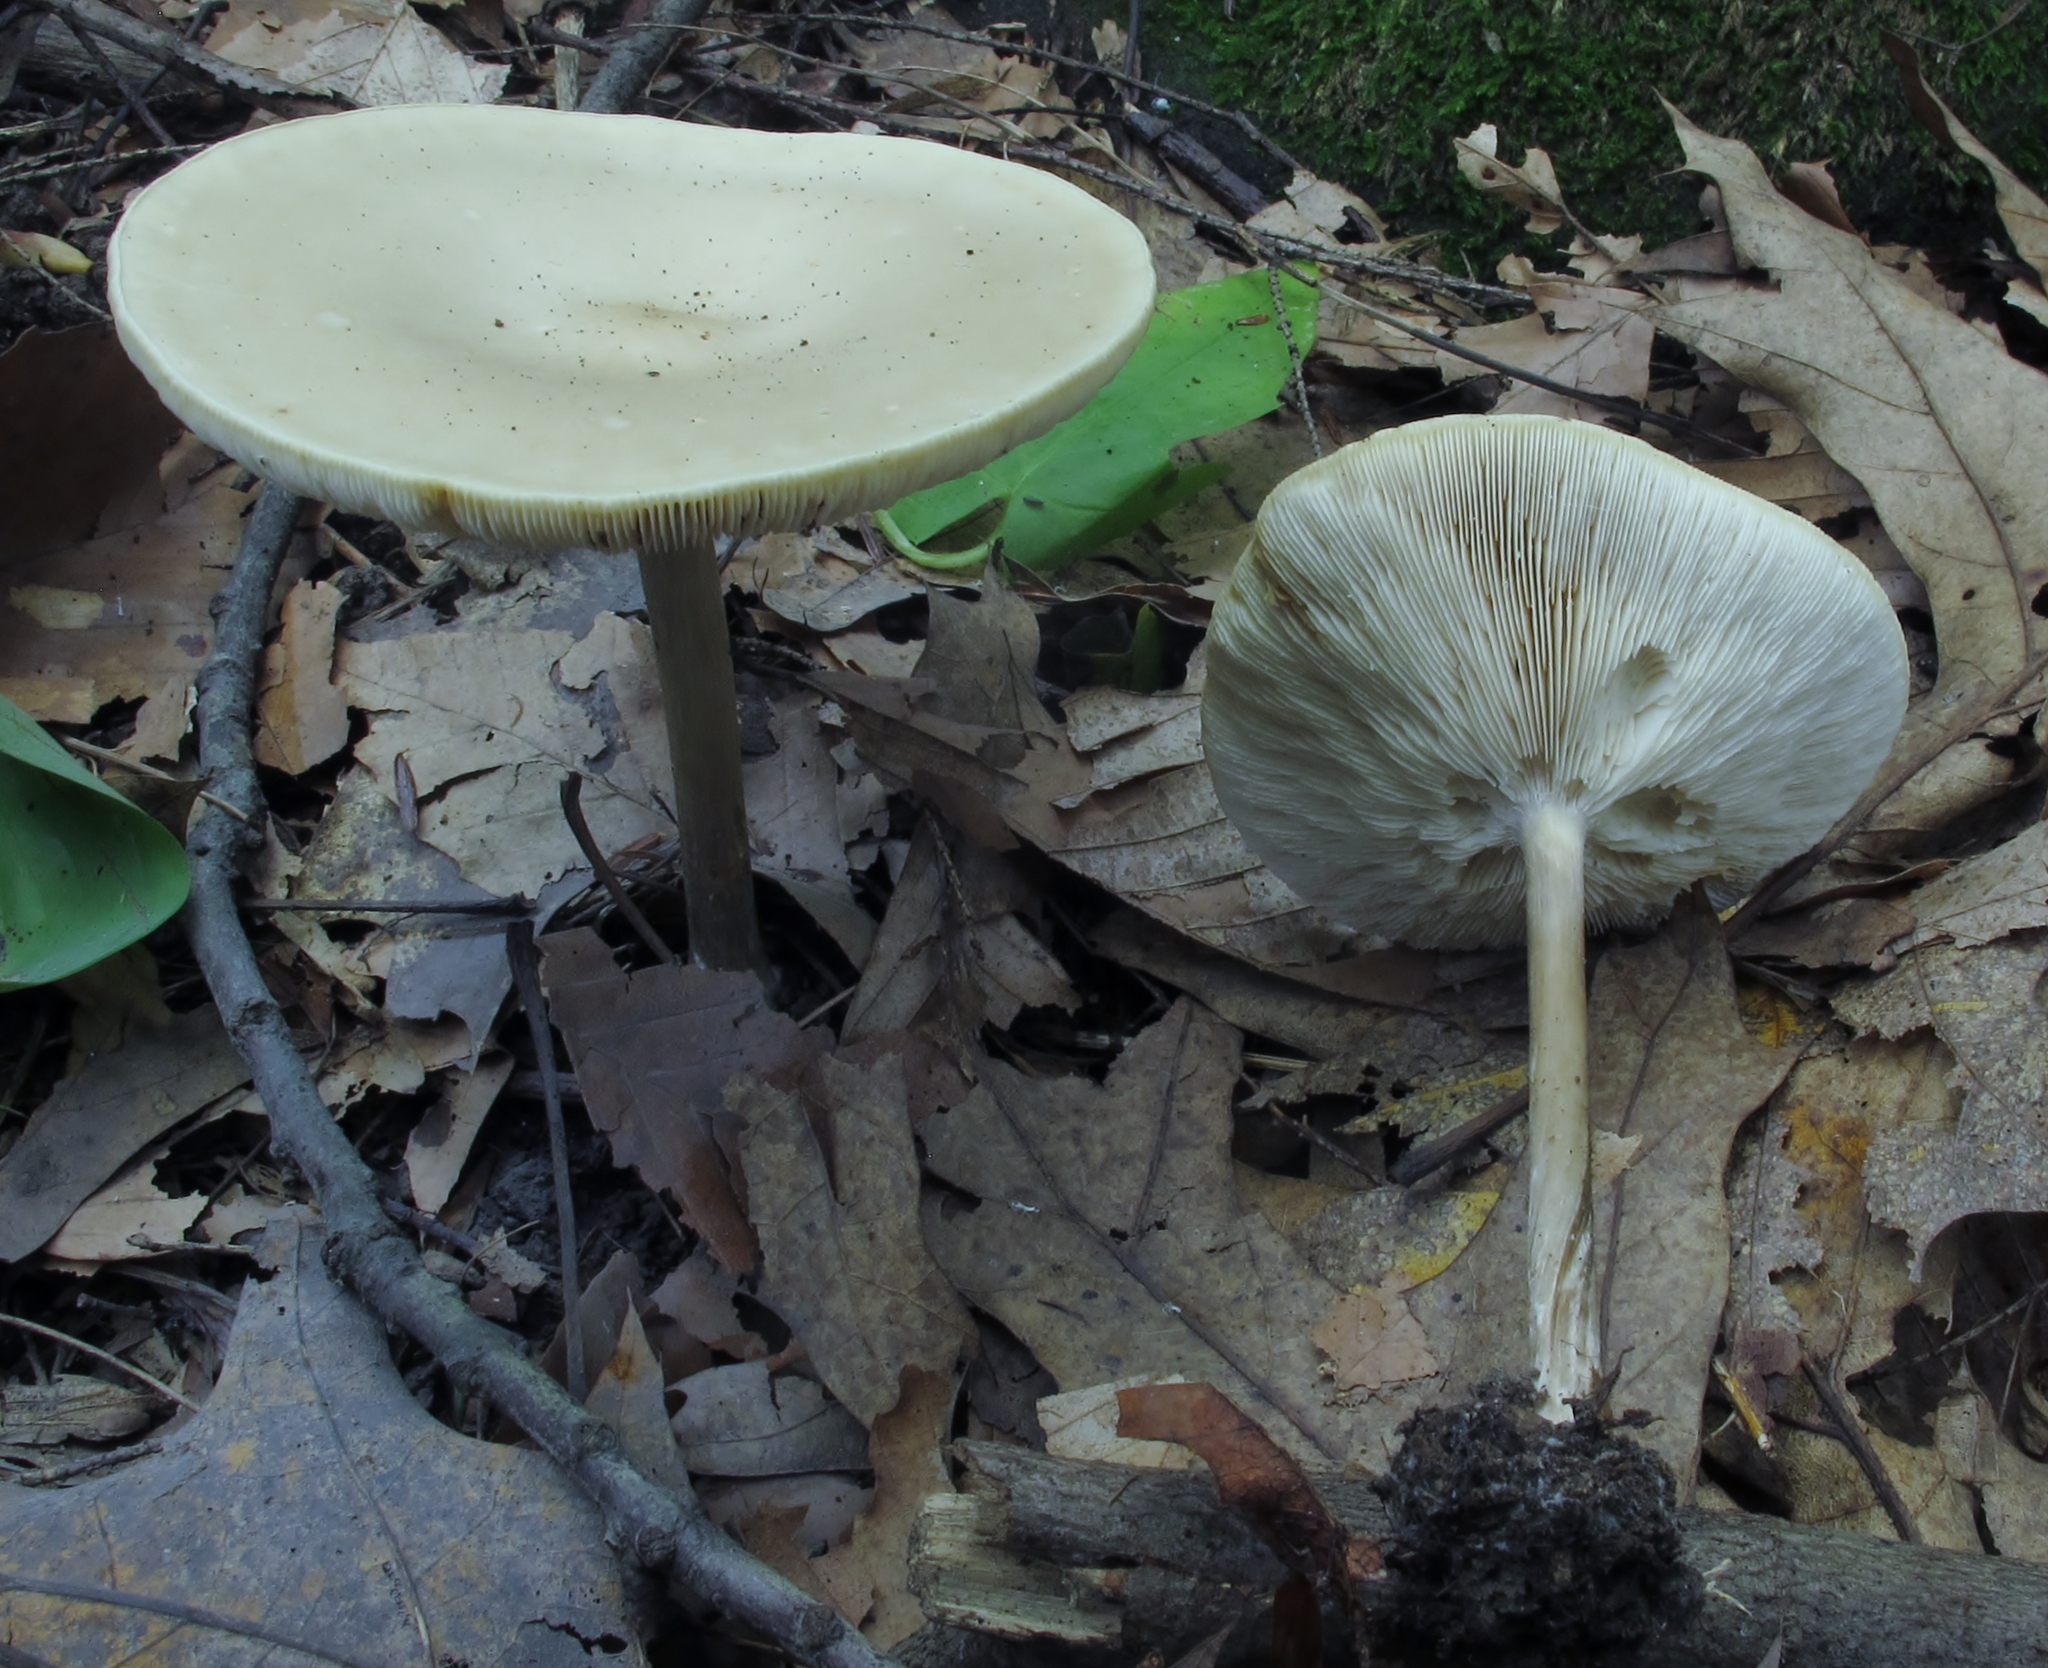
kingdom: Fungi
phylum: Basidiomycota
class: Agaricomycetes
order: Agaricales
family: Tricholomataceae
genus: Collybia
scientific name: Collybia alboflavida
